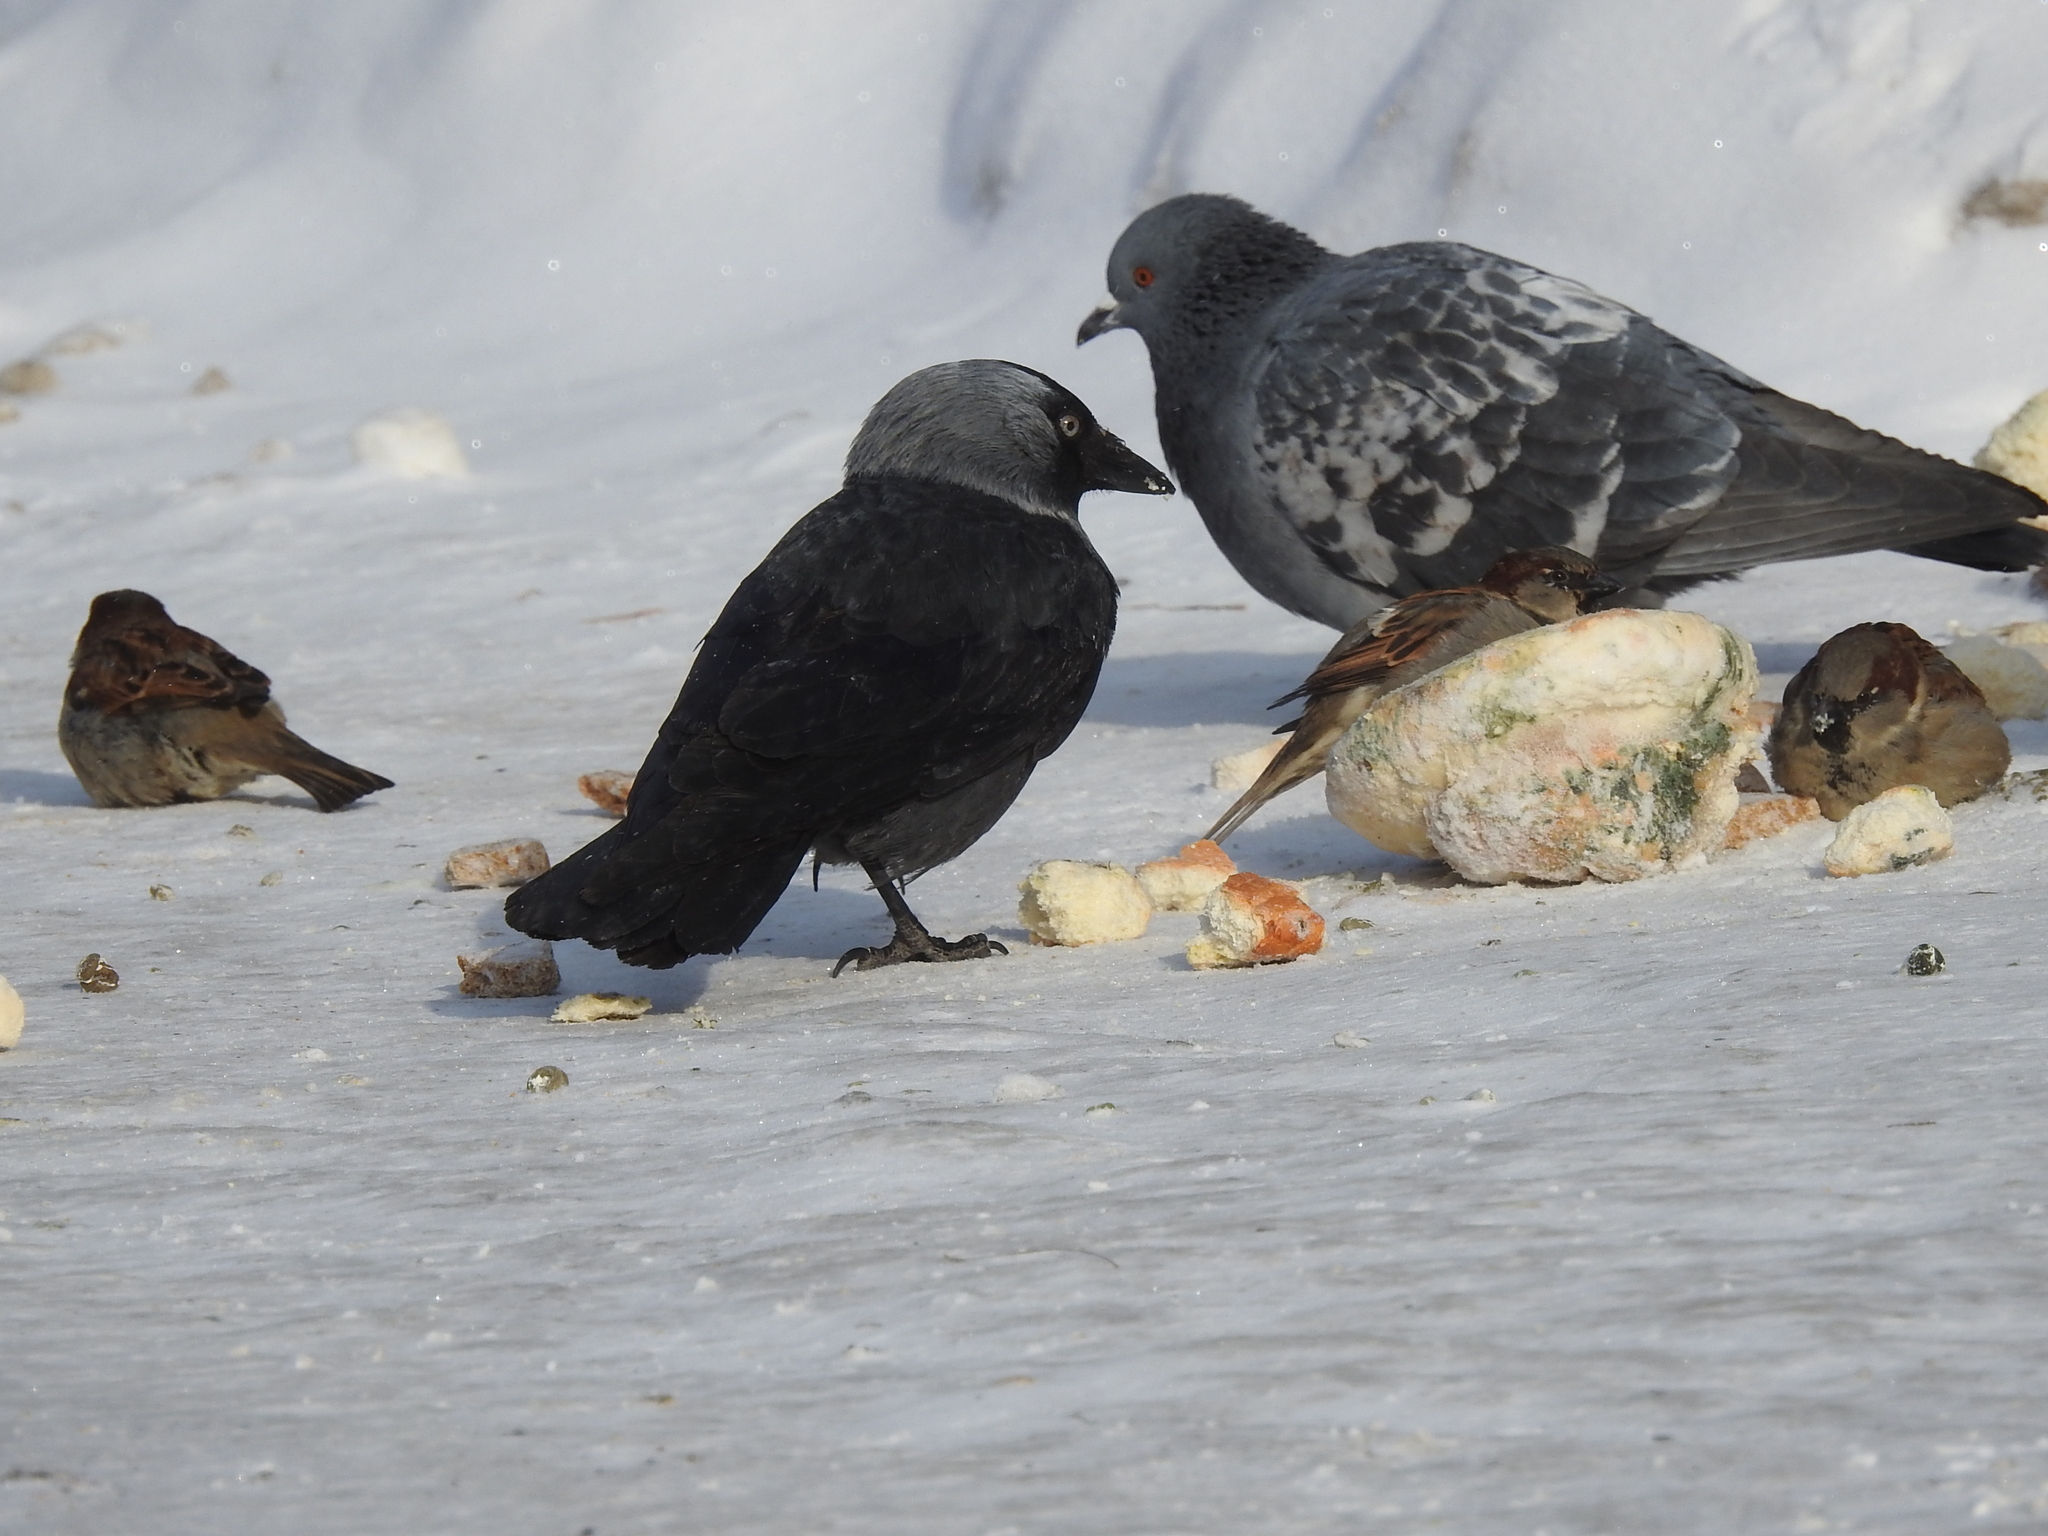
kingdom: Animalia
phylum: Chordata
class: Aves
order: Passeriformes
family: Corvidae
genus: Coloeus
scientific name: Coloeus monedula
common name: Western jackdaw
